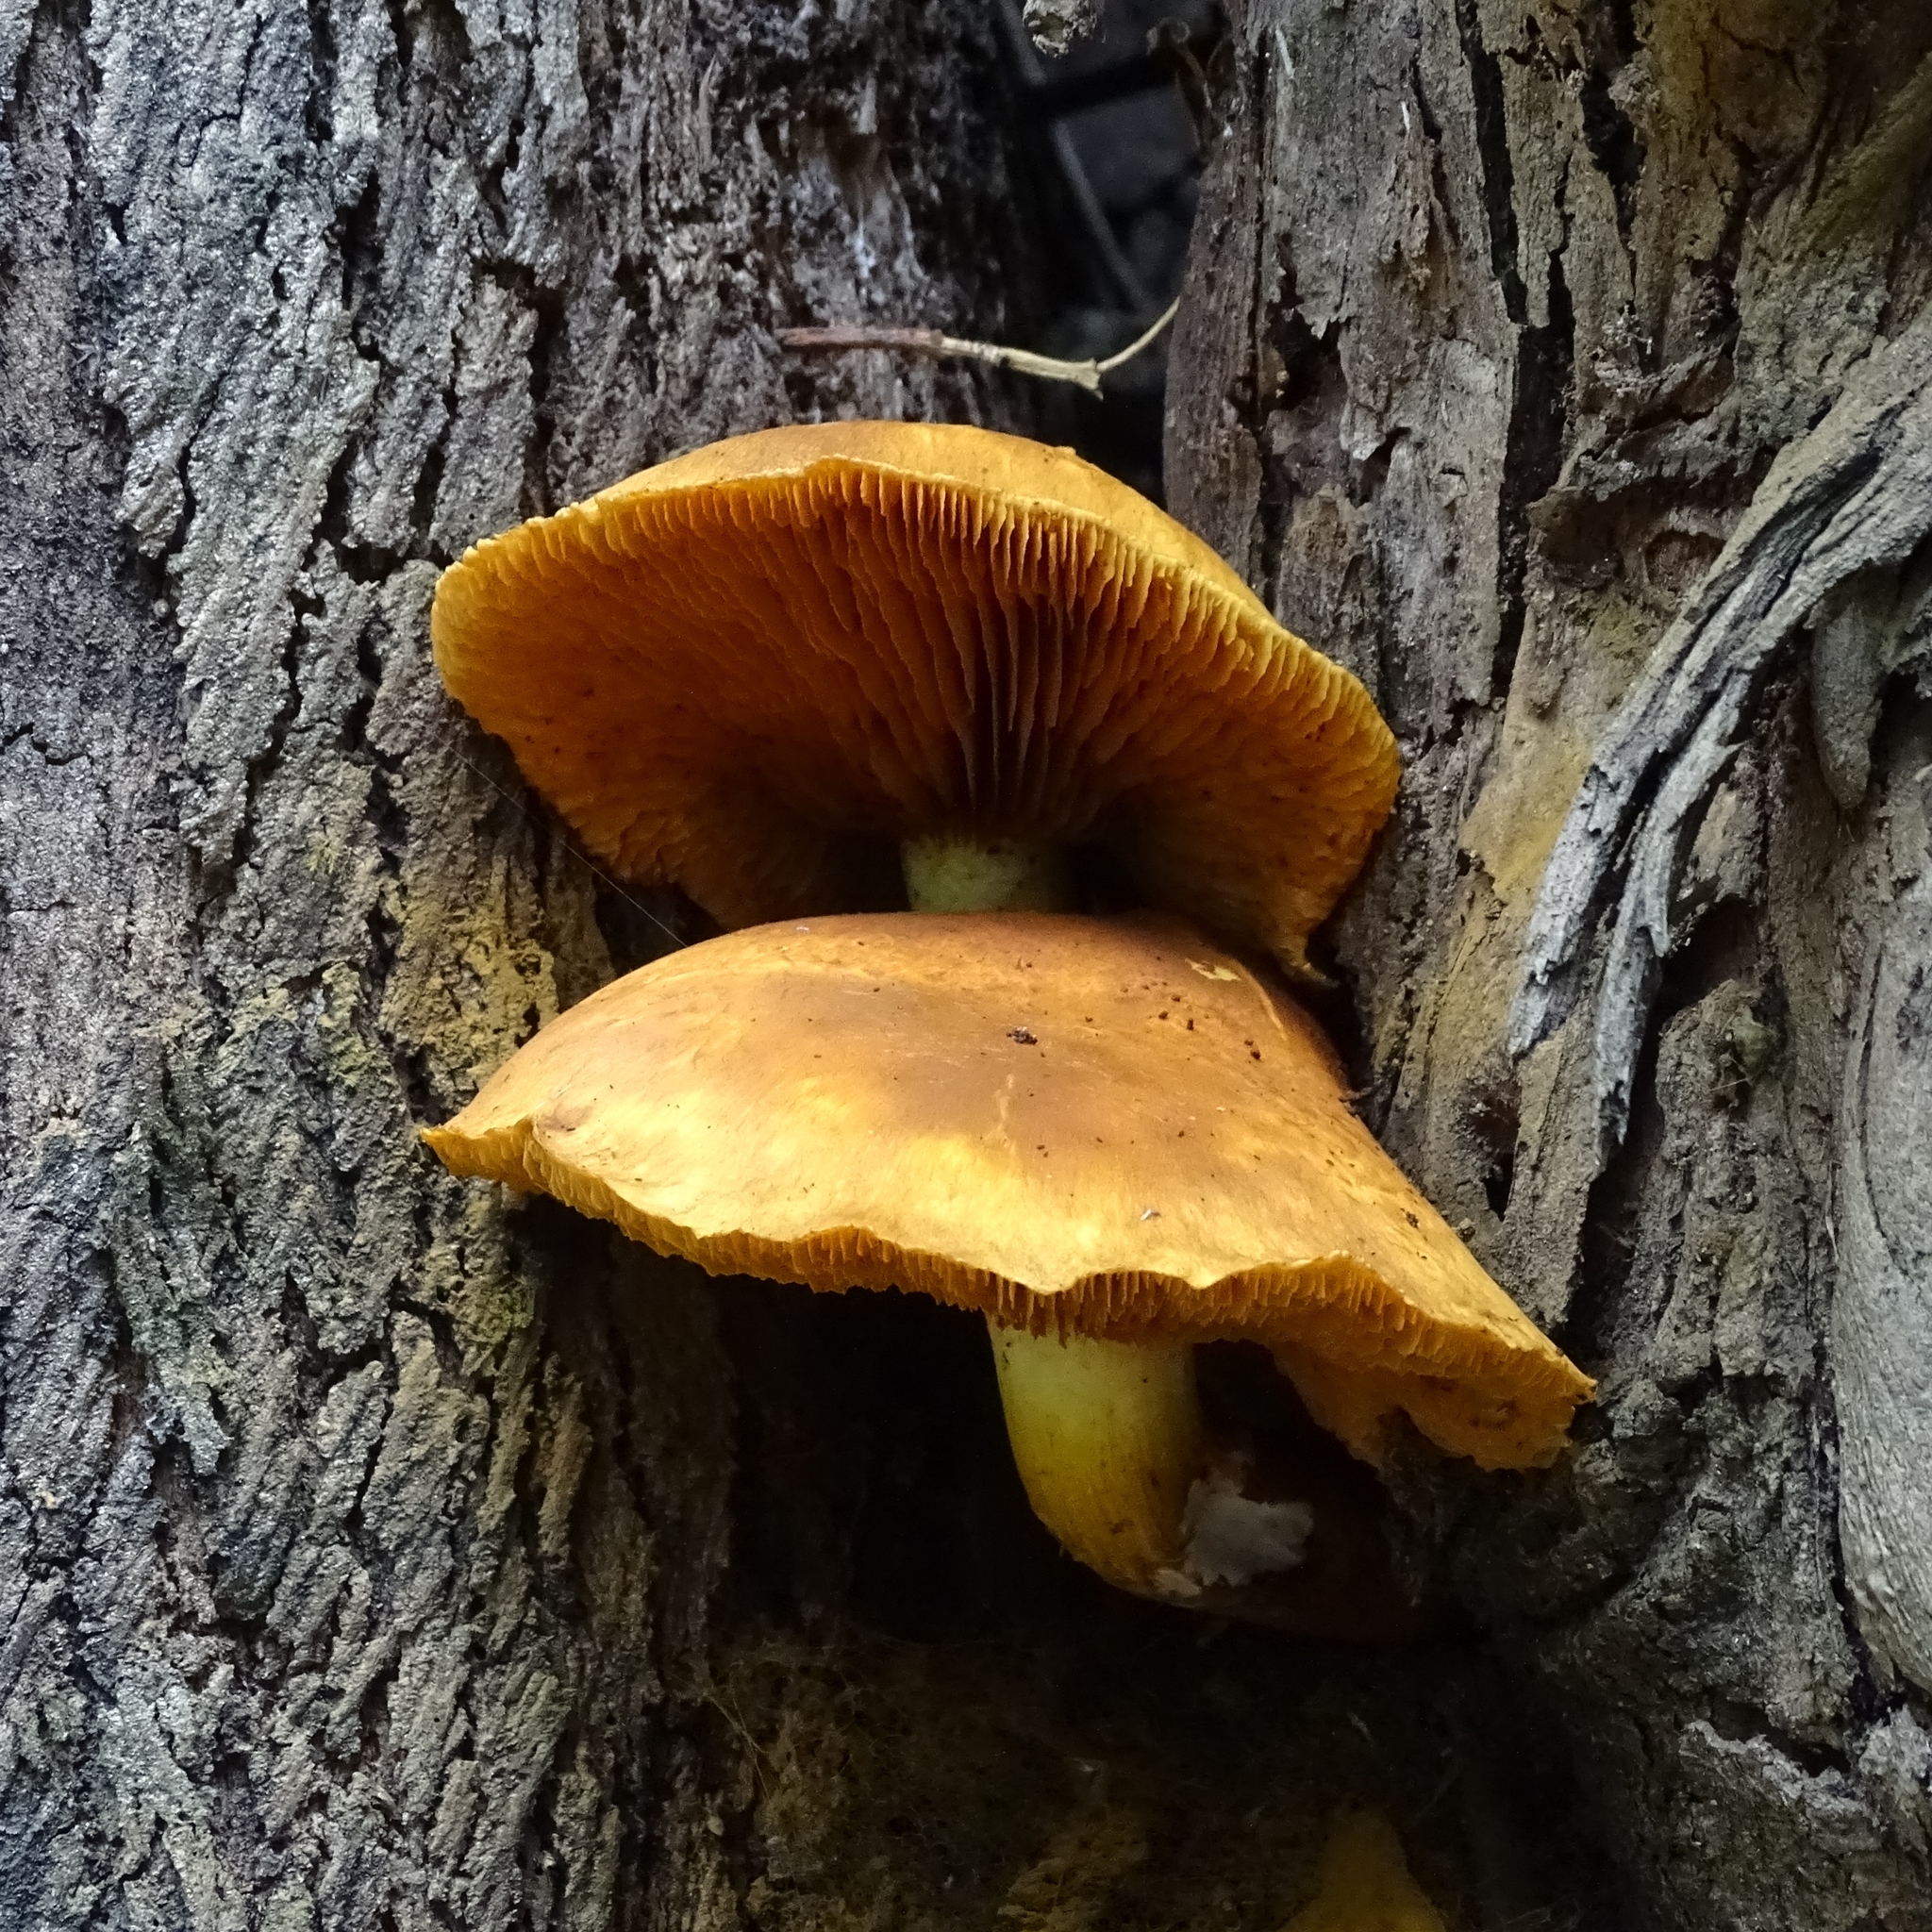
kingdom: Fungi
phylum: Basidiomycota
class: Agaricomycetes
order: Agaricales
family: Hymenogastraceae
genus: Gymnopilus
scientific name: Gymnopilus junonius
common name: Spectacular rustgill
